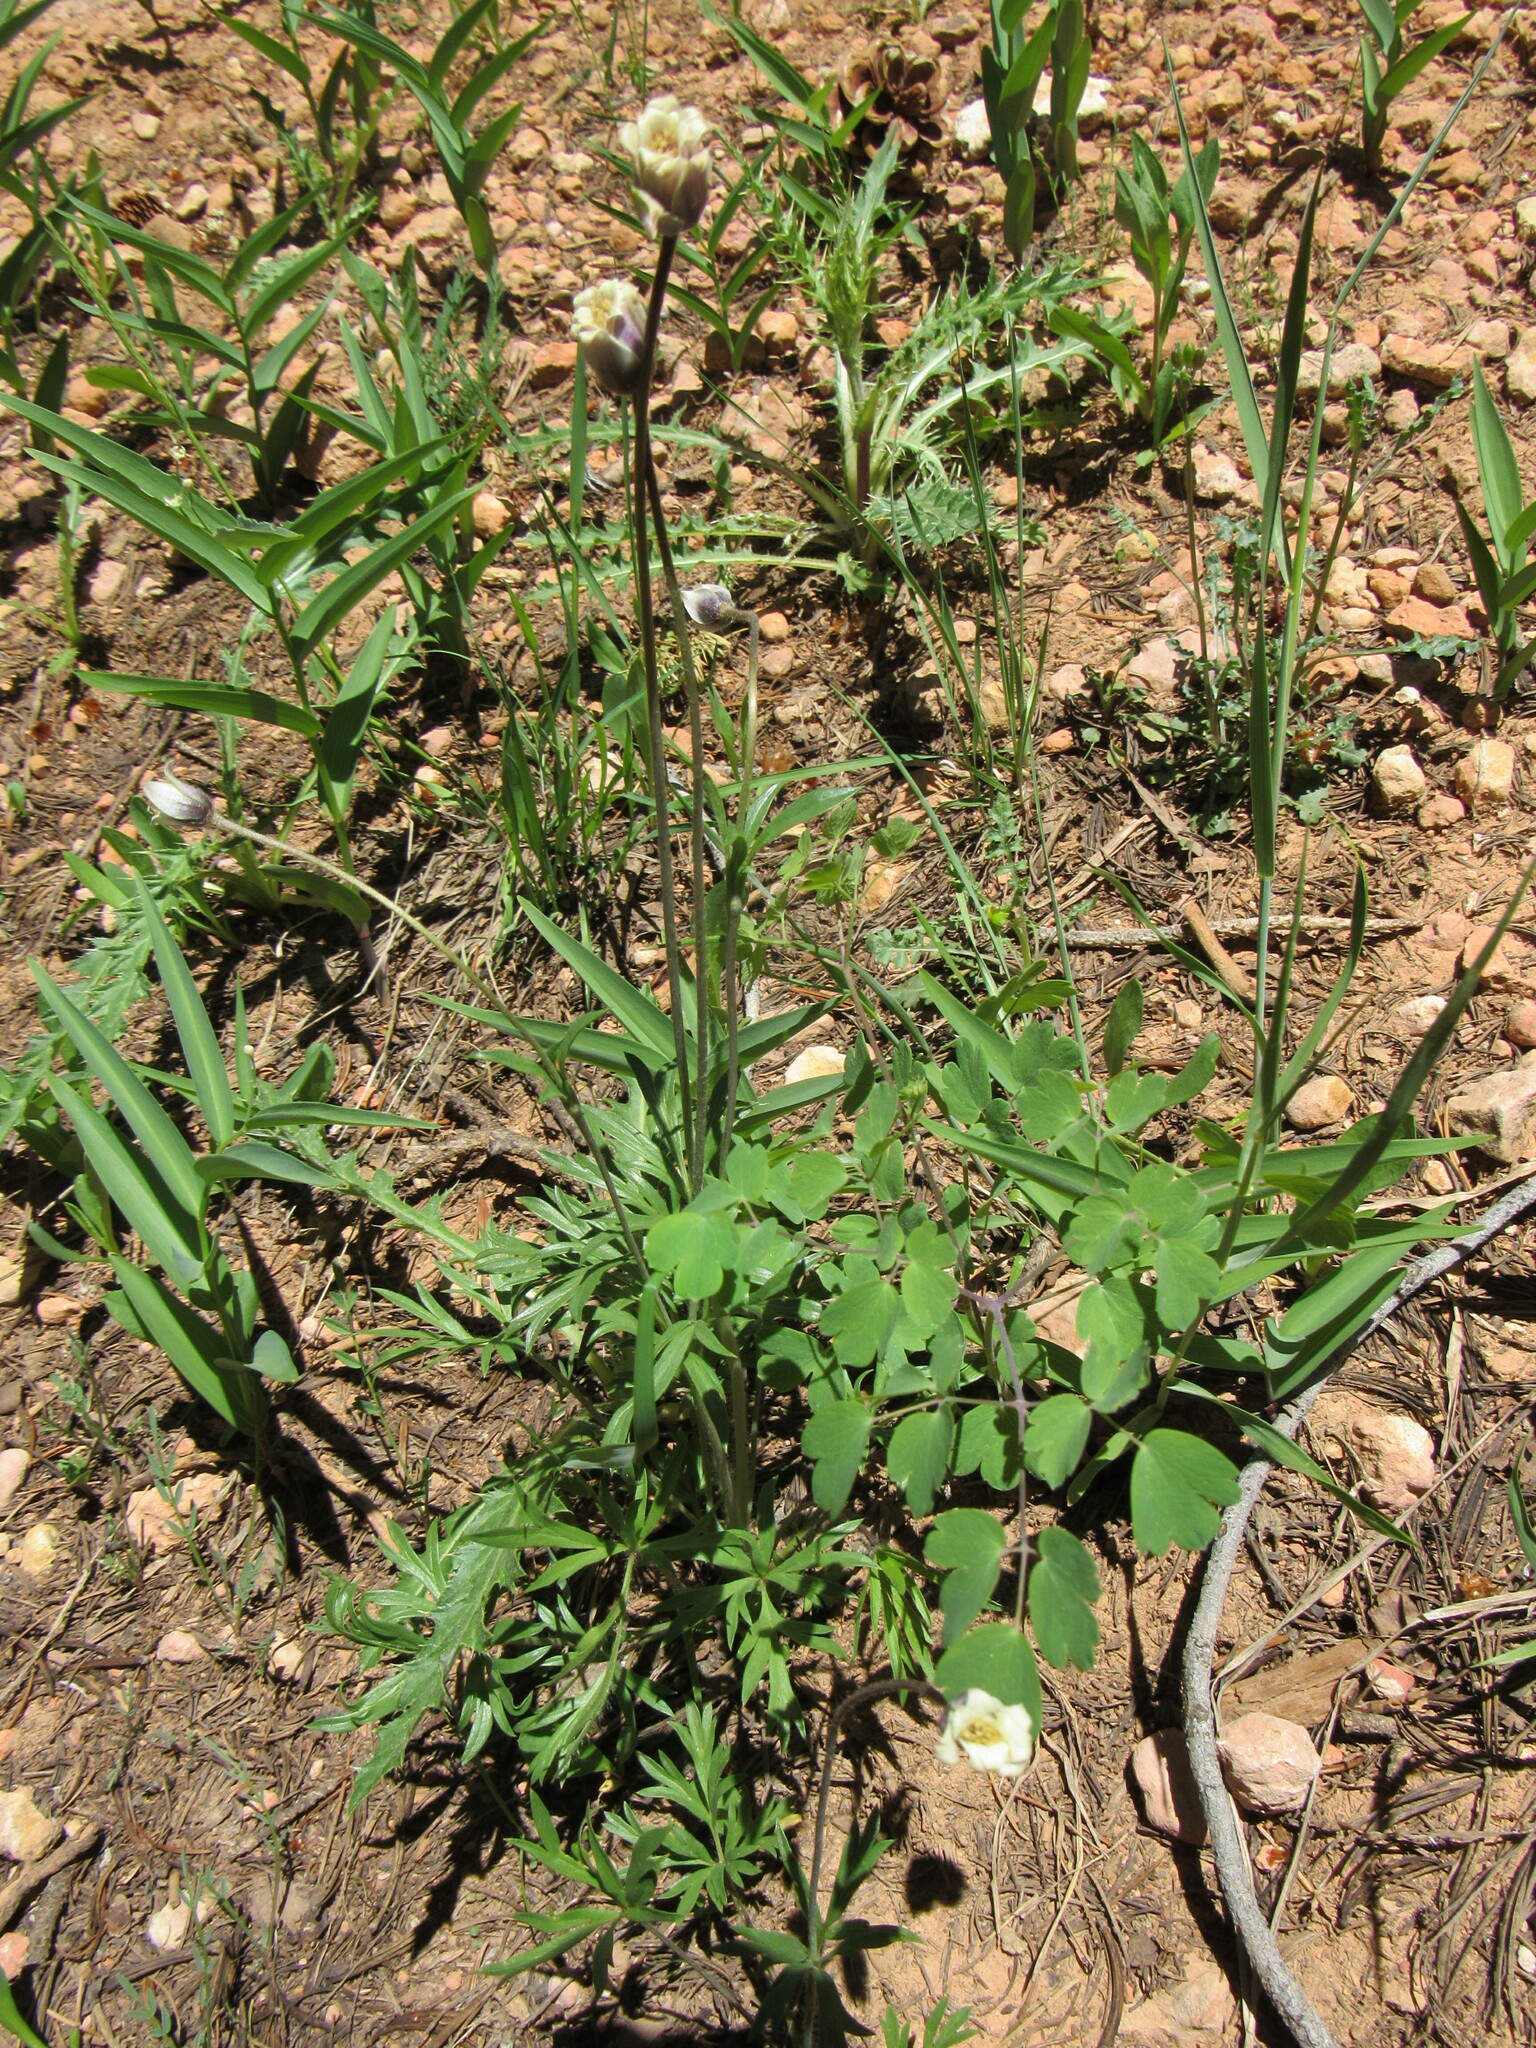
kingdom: Plantae
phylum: Tracheophyta
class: Magnoliopsida
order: Ranunculales
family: Ranunculaceae
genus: Anemone
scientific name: Anemone multifida
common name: Bird's-foot anemone
